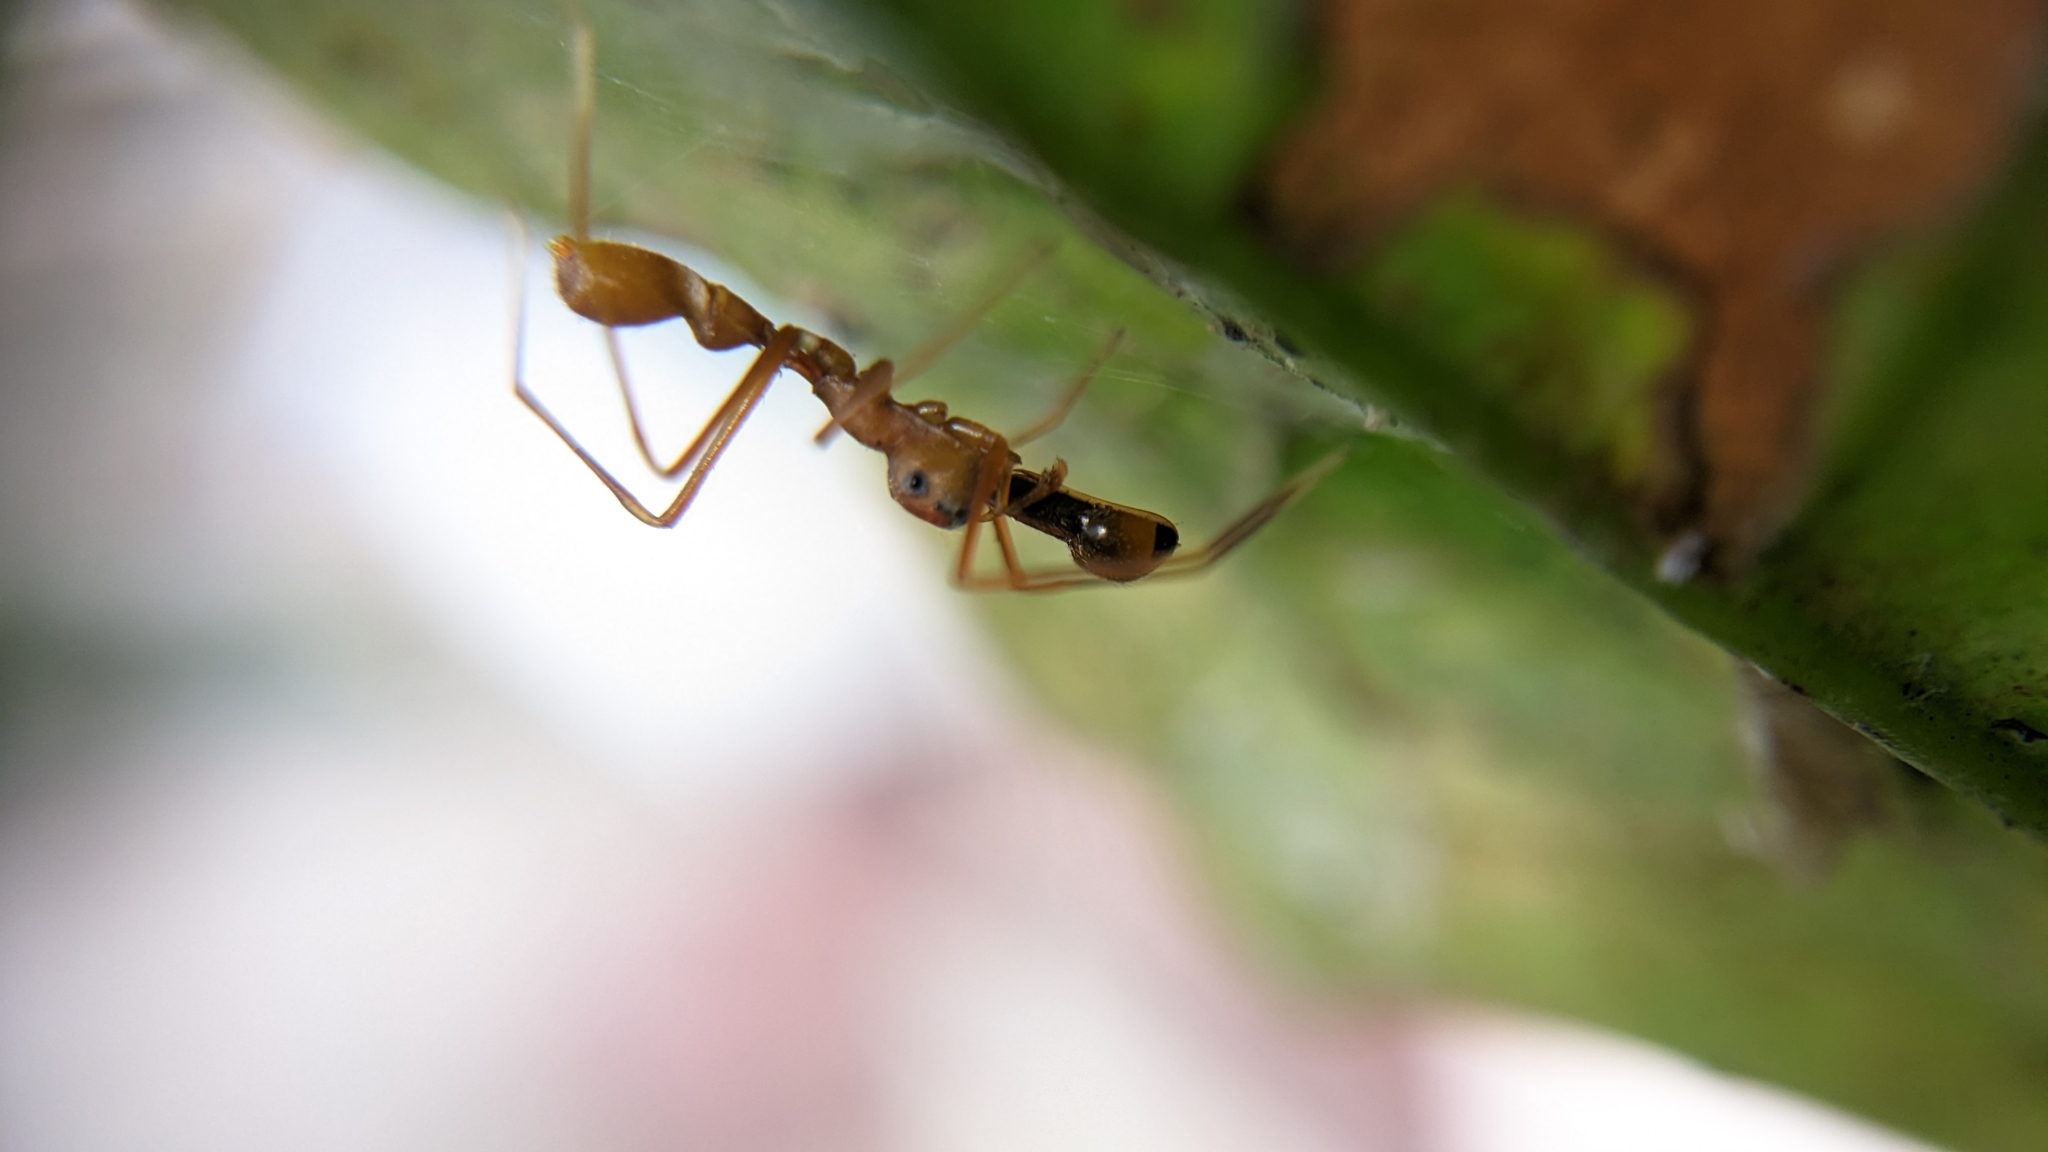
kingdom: Animalia
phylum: Arthropoda
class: Arachnida
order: Araneae
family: Salticidae
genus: Myrmaplata
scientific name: Myrmaplata plataleoides
